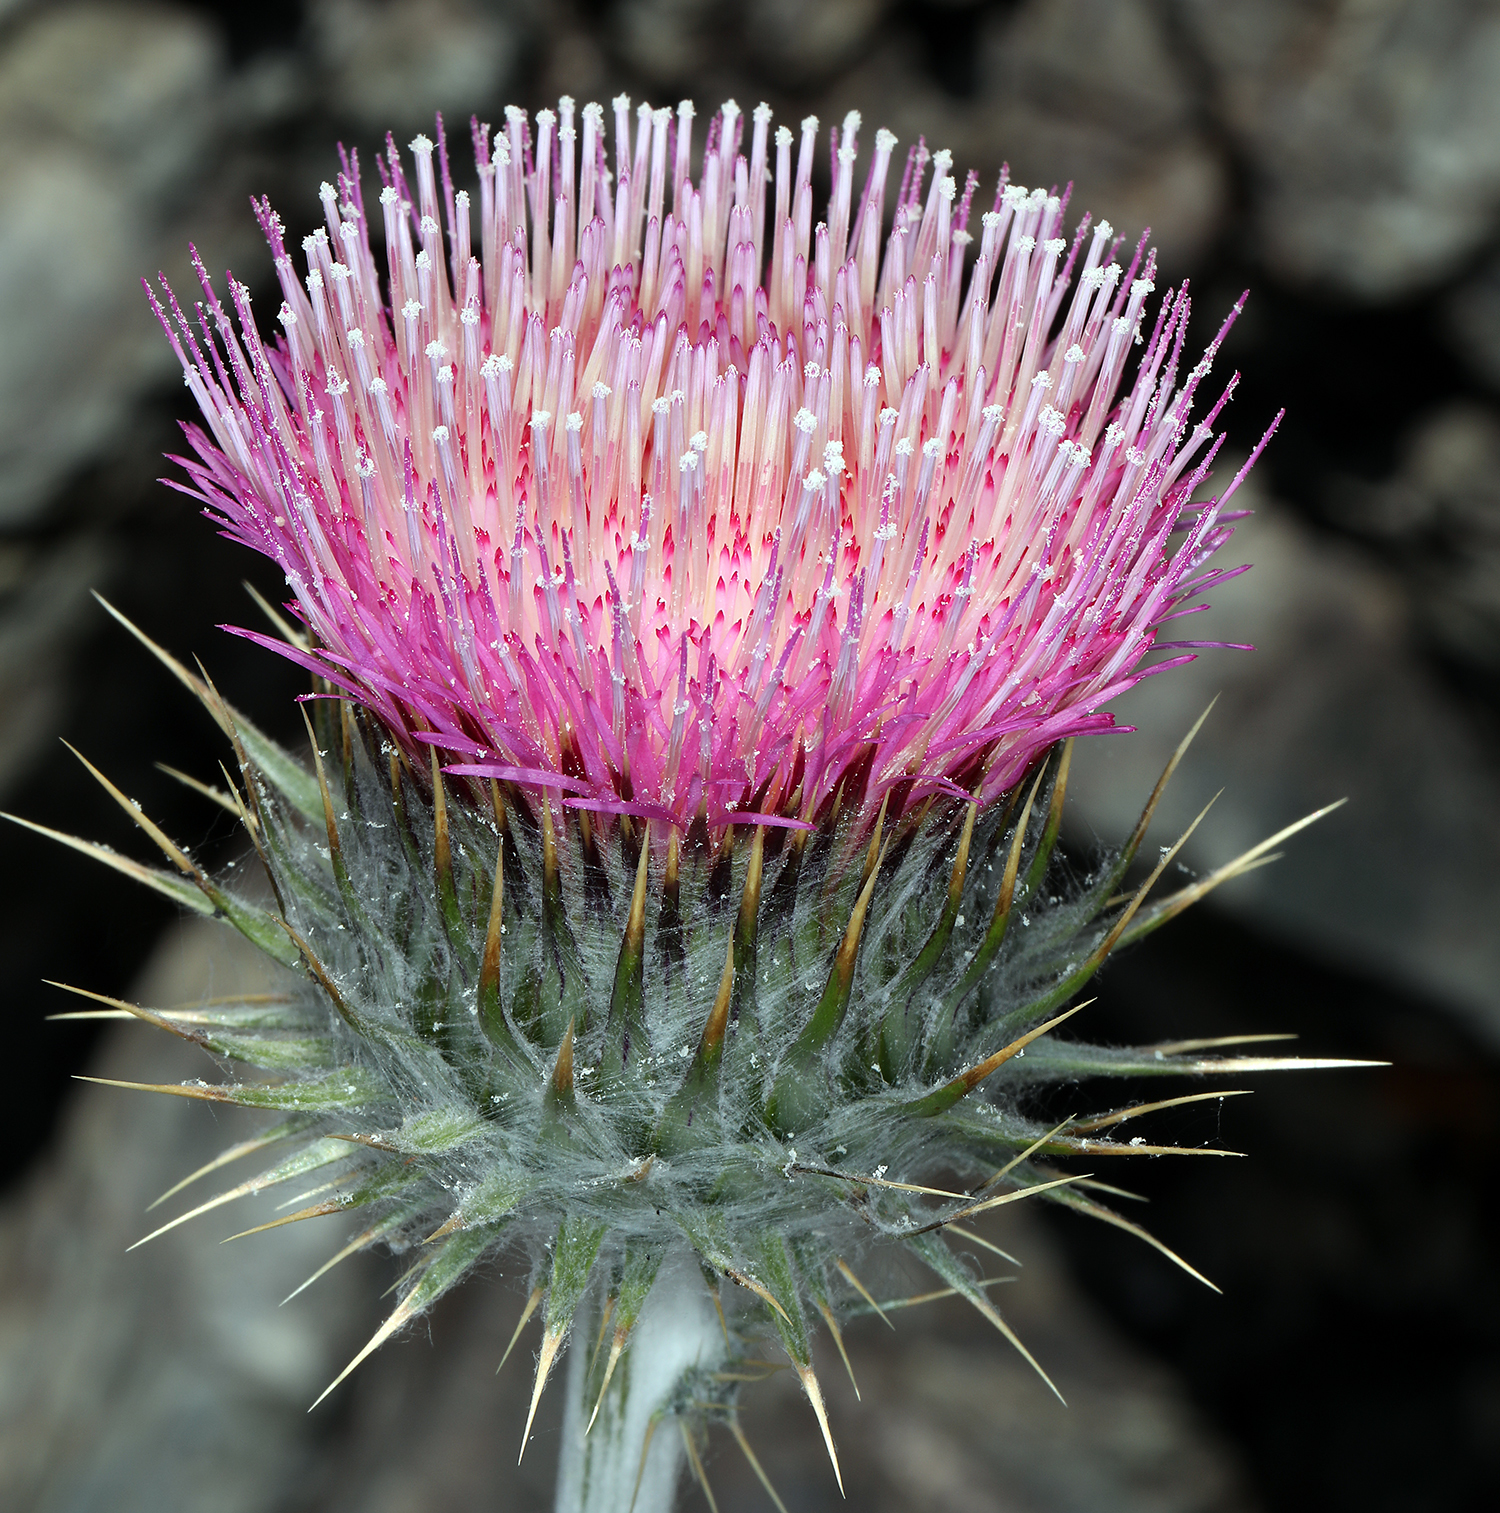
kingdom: Plantae
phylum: Tracheophyta
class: Magnoliopsida
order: Asterales
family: Asteraceae
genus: Cirsium
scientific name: Cirsium occidentale
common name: Western thistle
